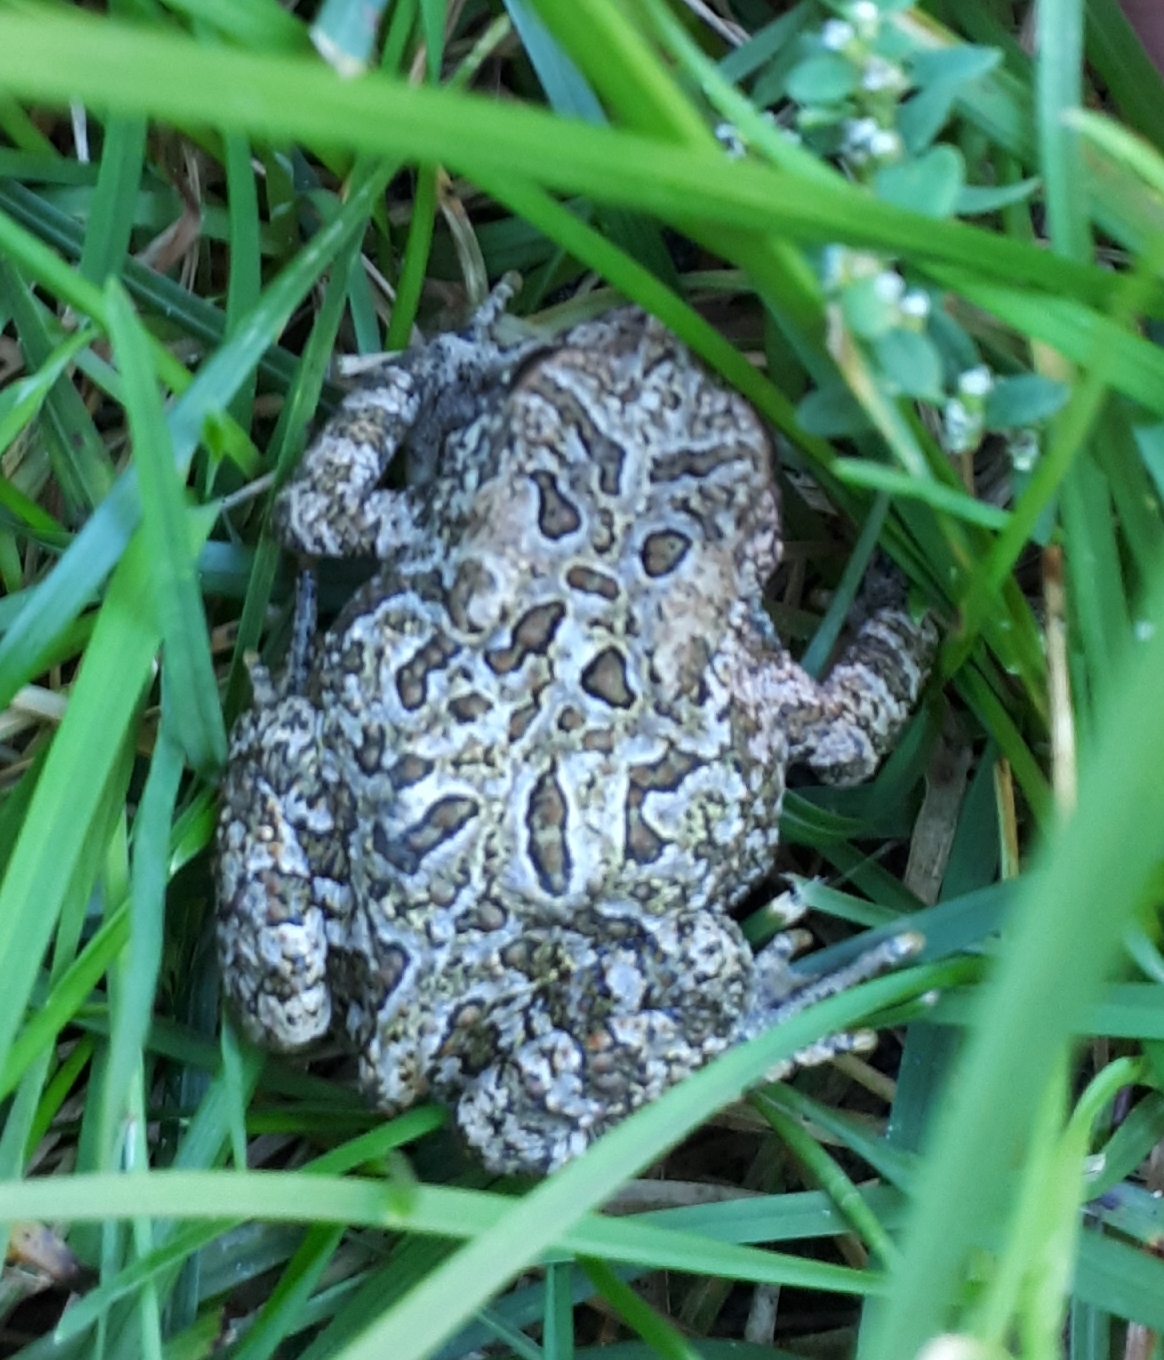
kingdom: Animalia
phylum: Chordata
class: Amphibia
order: Anura
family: Bufonidae
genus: Anaxyrus
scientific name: Anaxyrus americanus
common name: American toad
